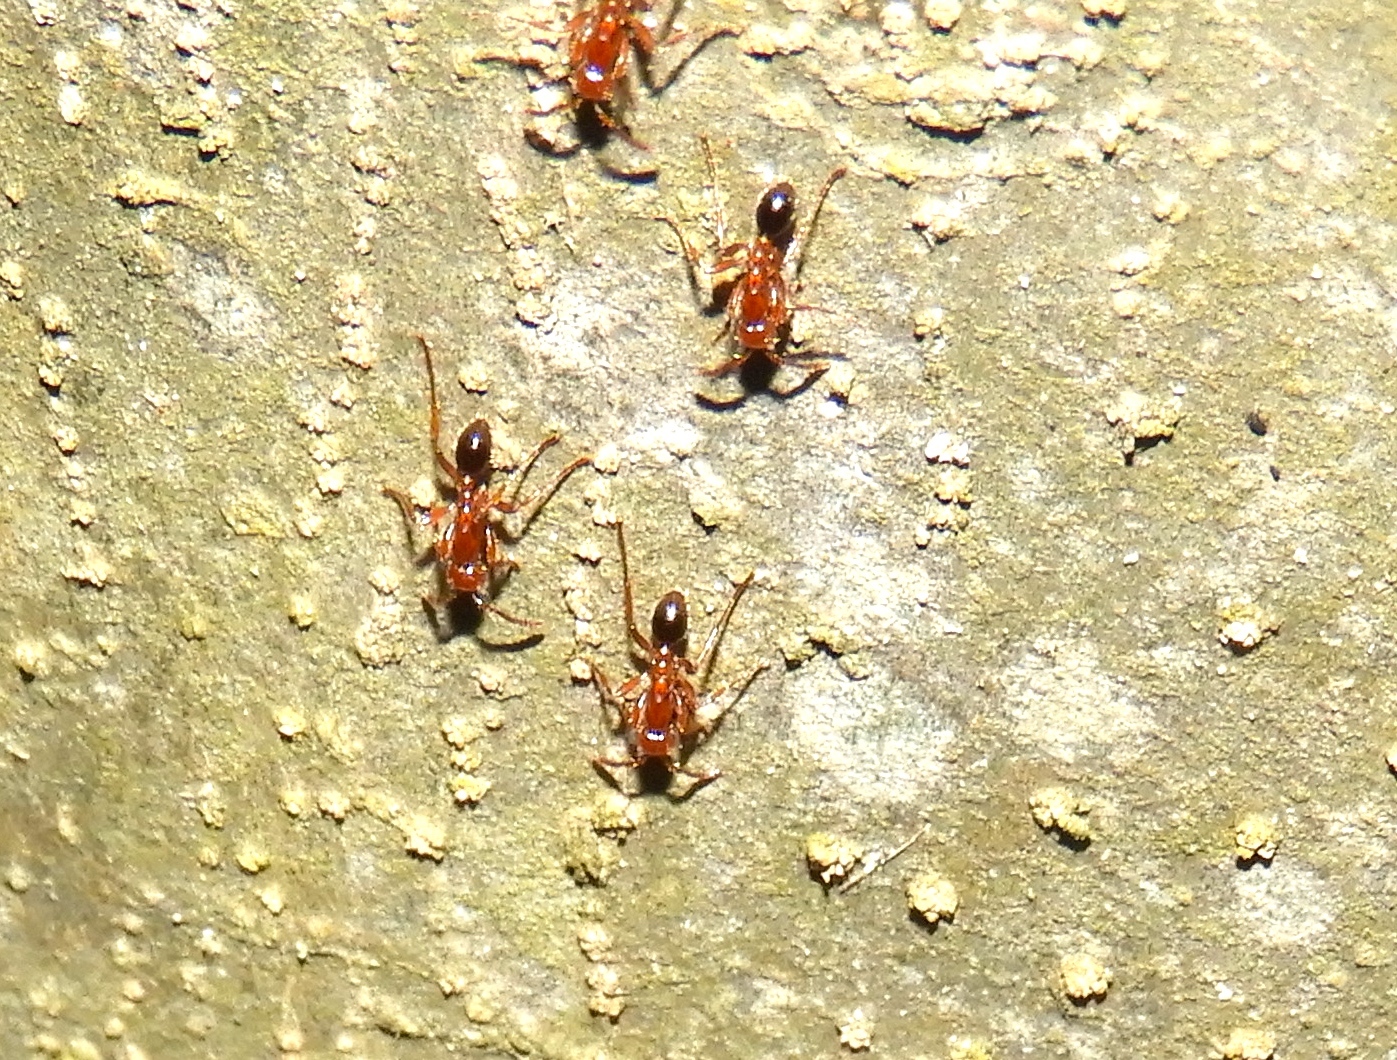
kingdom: Animalia
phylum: Arthropoda
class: Insecta
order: Hymenoptera
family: Formicidae
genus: Neivamyrmex
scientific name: Neivamyrmex graciellae
